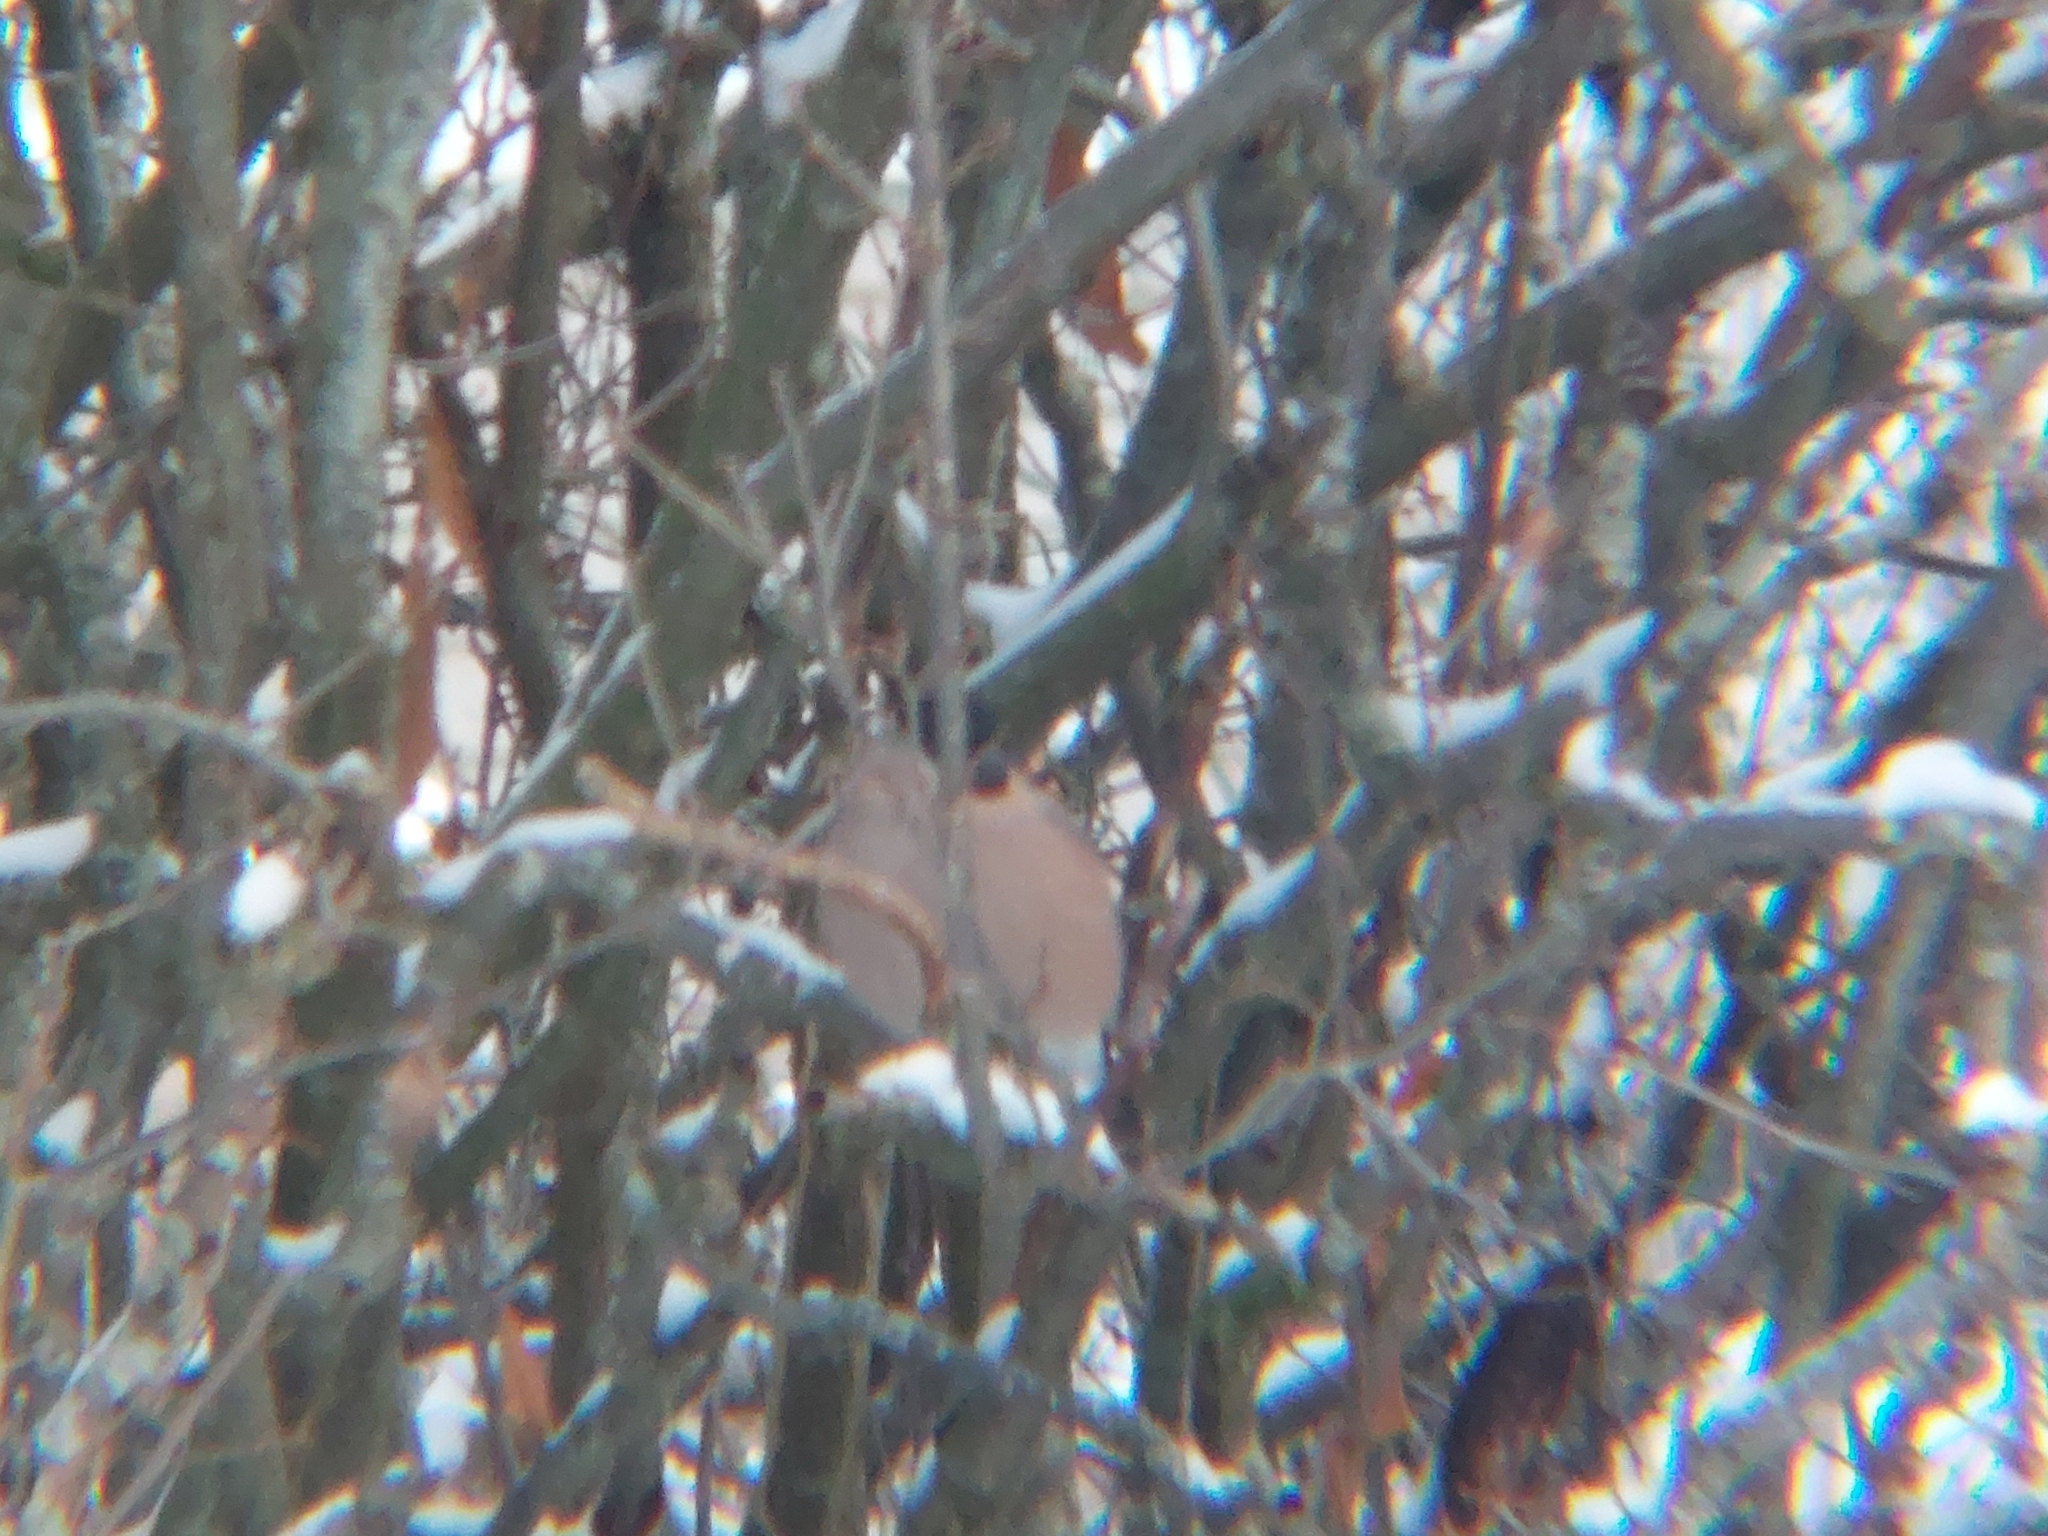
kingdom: Animalia
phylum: Chordata
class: Aves
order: Passeriformes
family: Fringillidae
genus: Pyrrhula
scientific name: Pyrrhula pyrrhula
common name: Eurasian bullfinch
